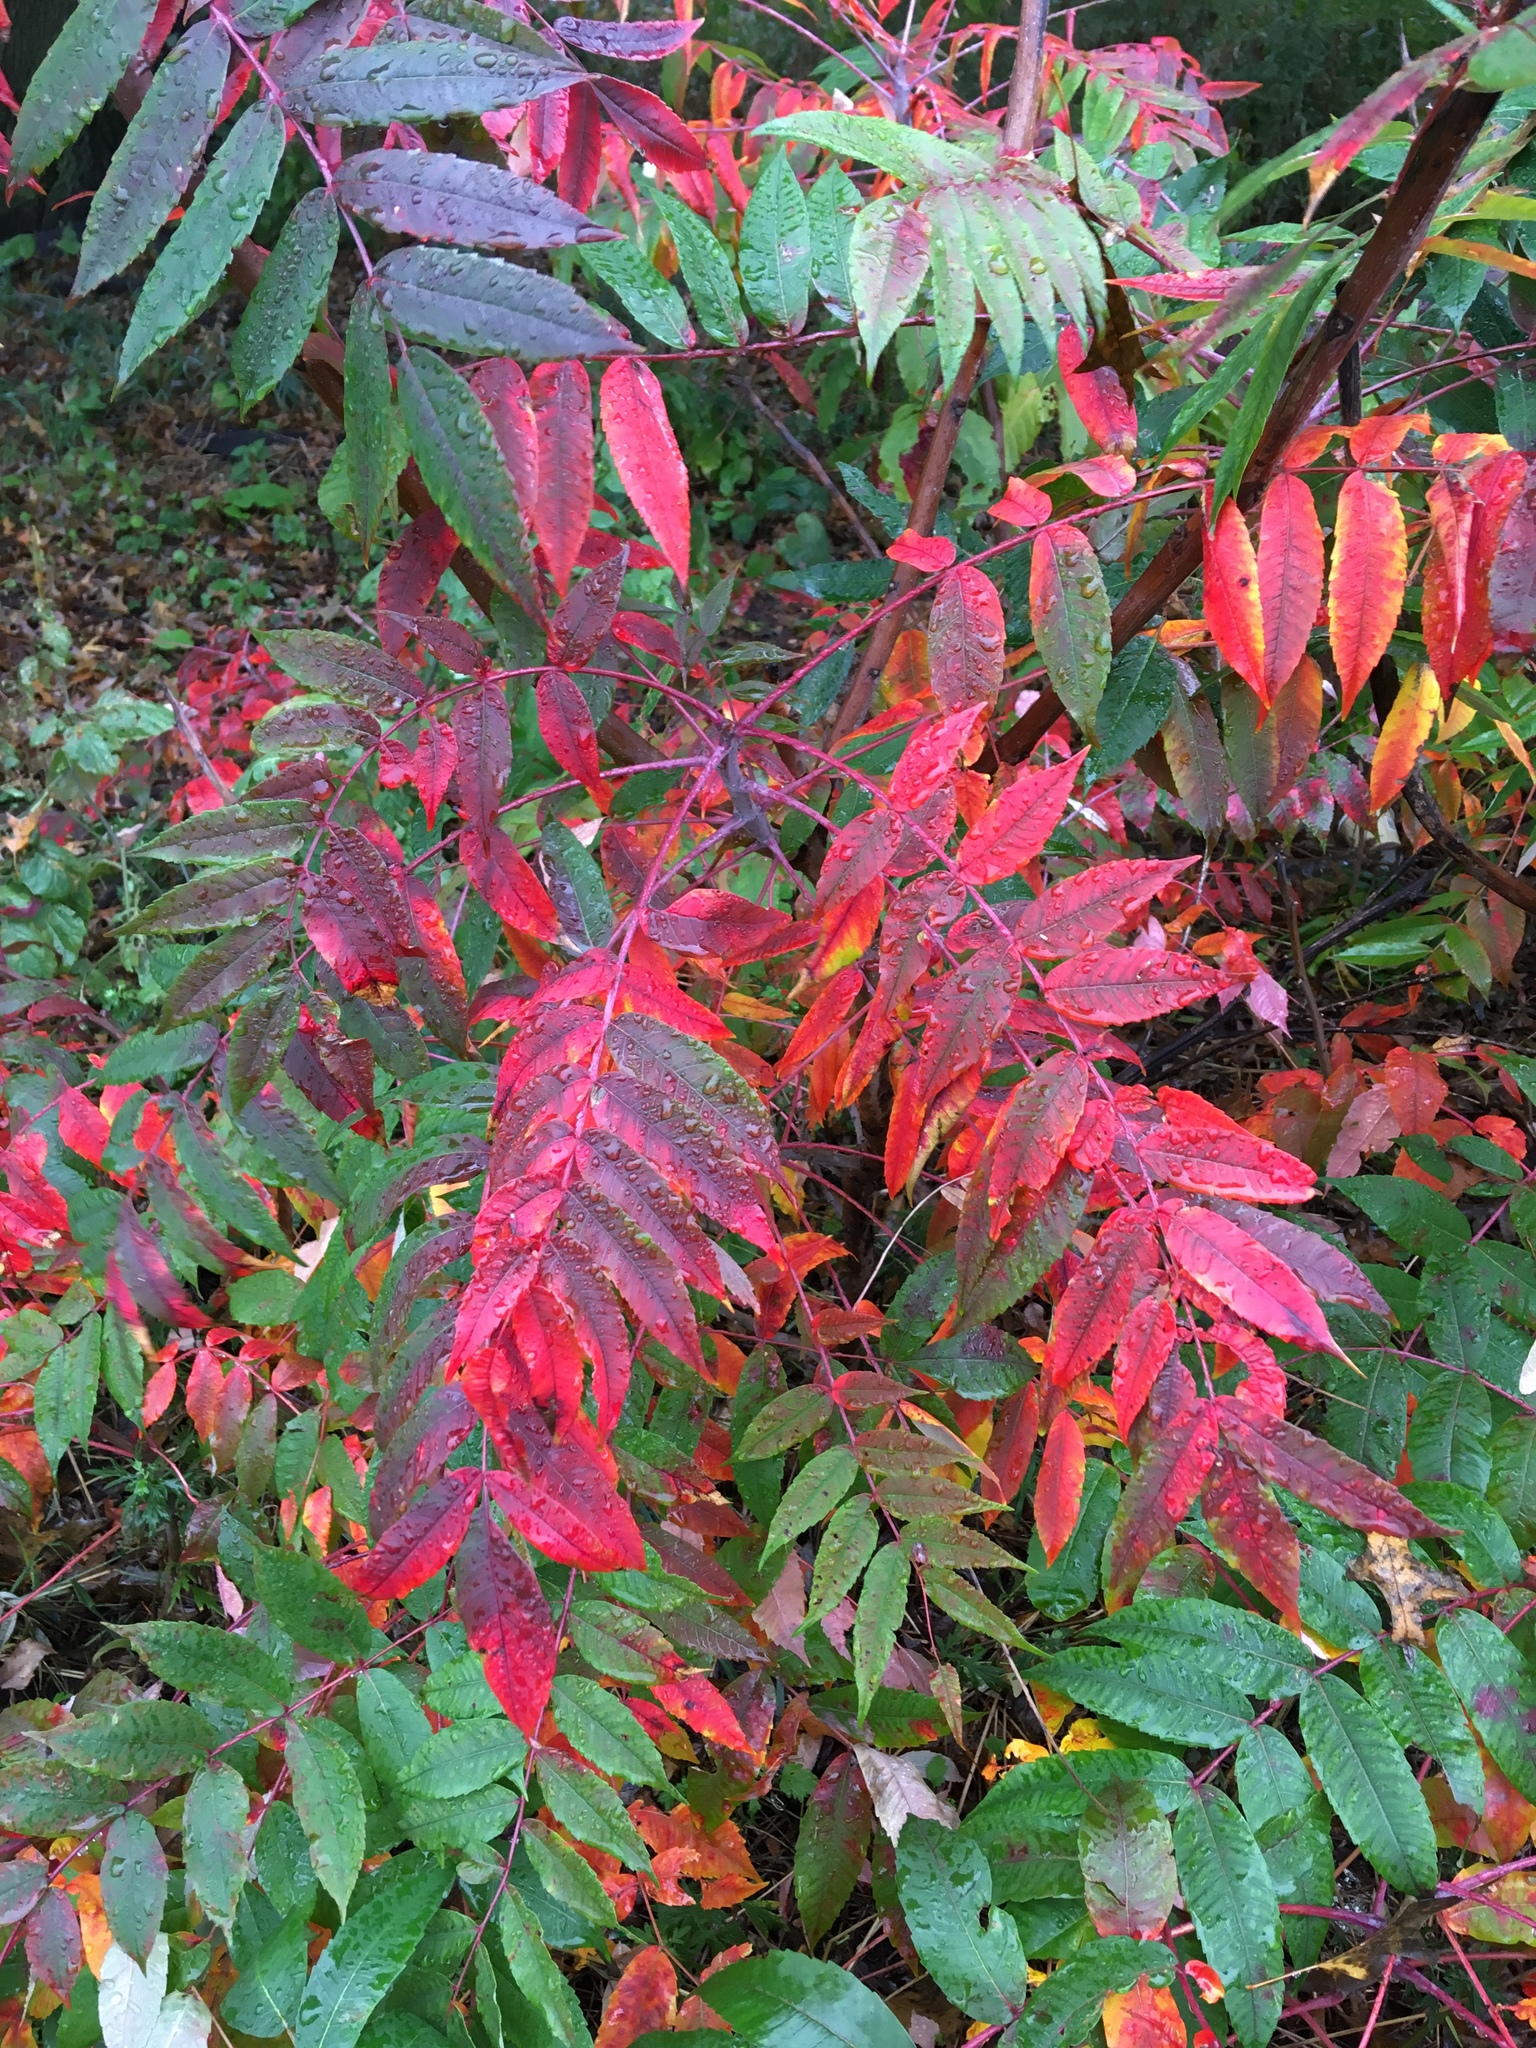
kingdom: Plantae
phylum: Tracheophyta
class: Magnoliopsida
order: Sapindales
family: Anacardiaceae
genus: Rhus
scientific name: Rhus glabra
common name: Scarlet sumac
